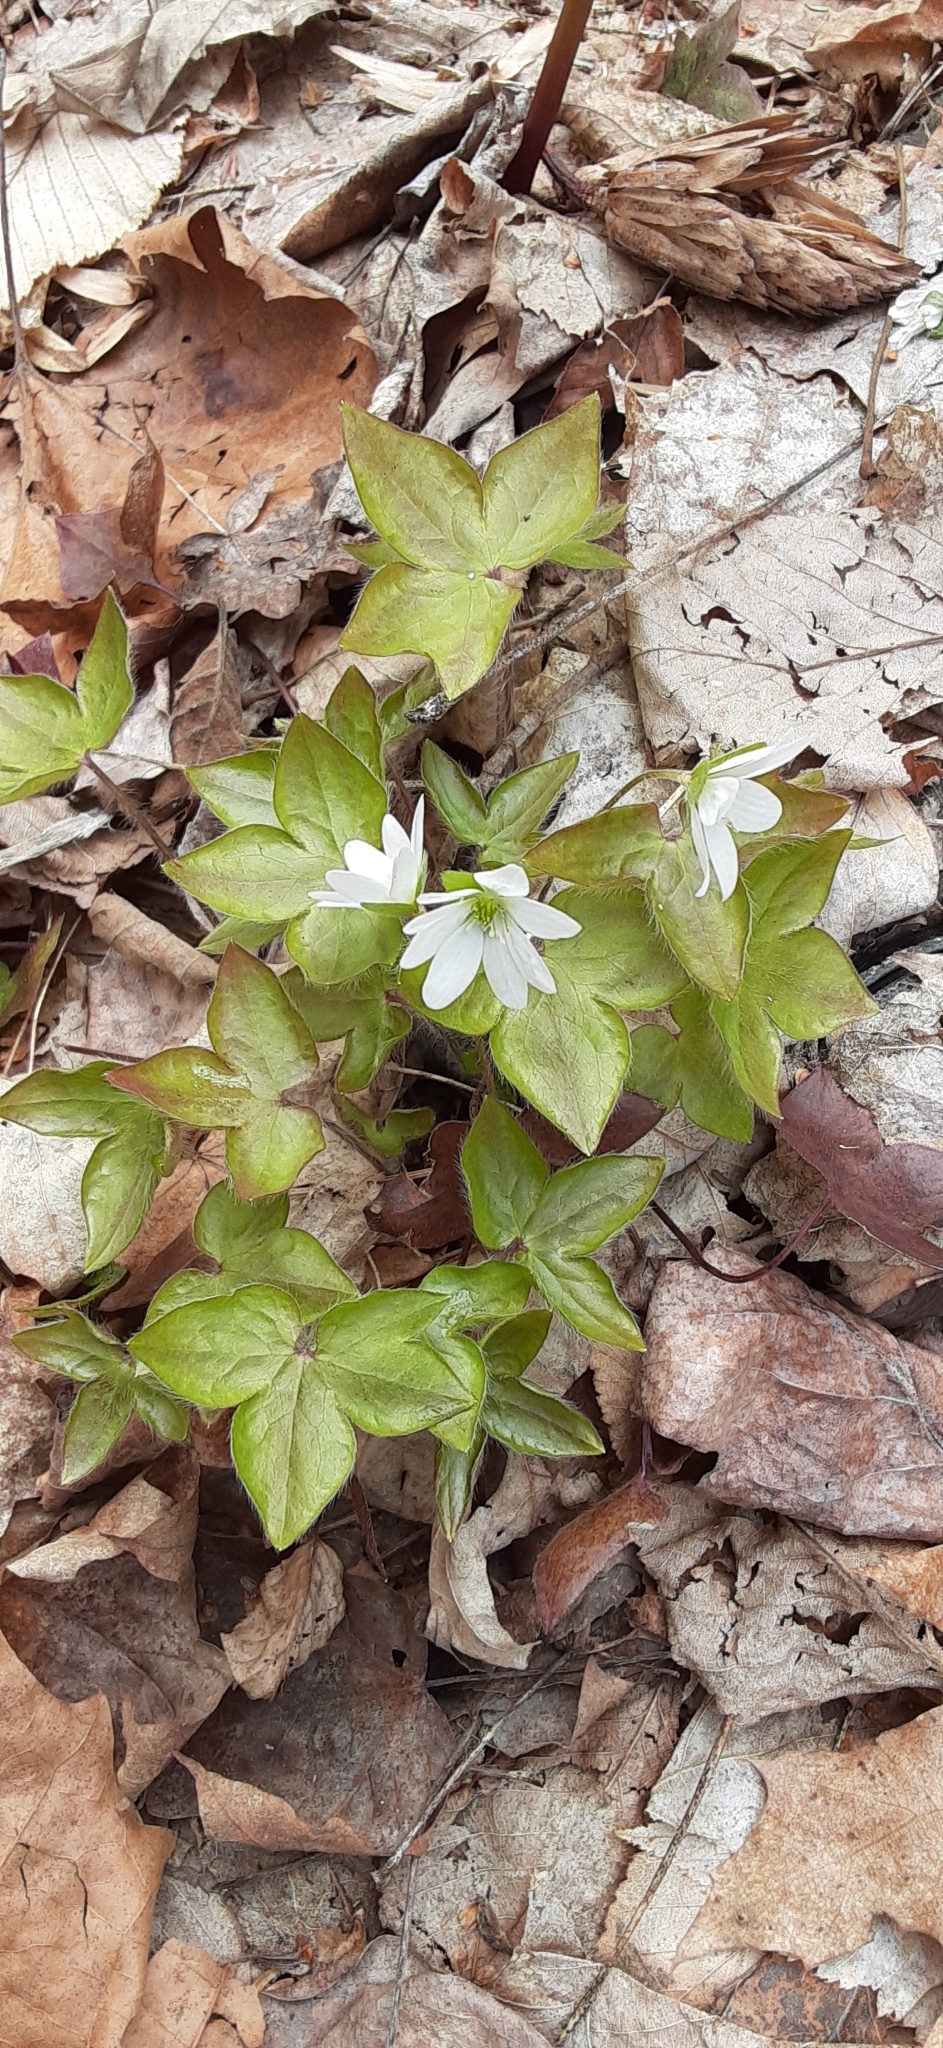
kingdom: Plantae
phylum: Tracheophyta
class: Magnoliopsida
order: Ranunculales
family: Ranunculaceae
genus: Hepatica
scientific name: Hepatica acutiloba
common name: Sharp-lobed hepatica
